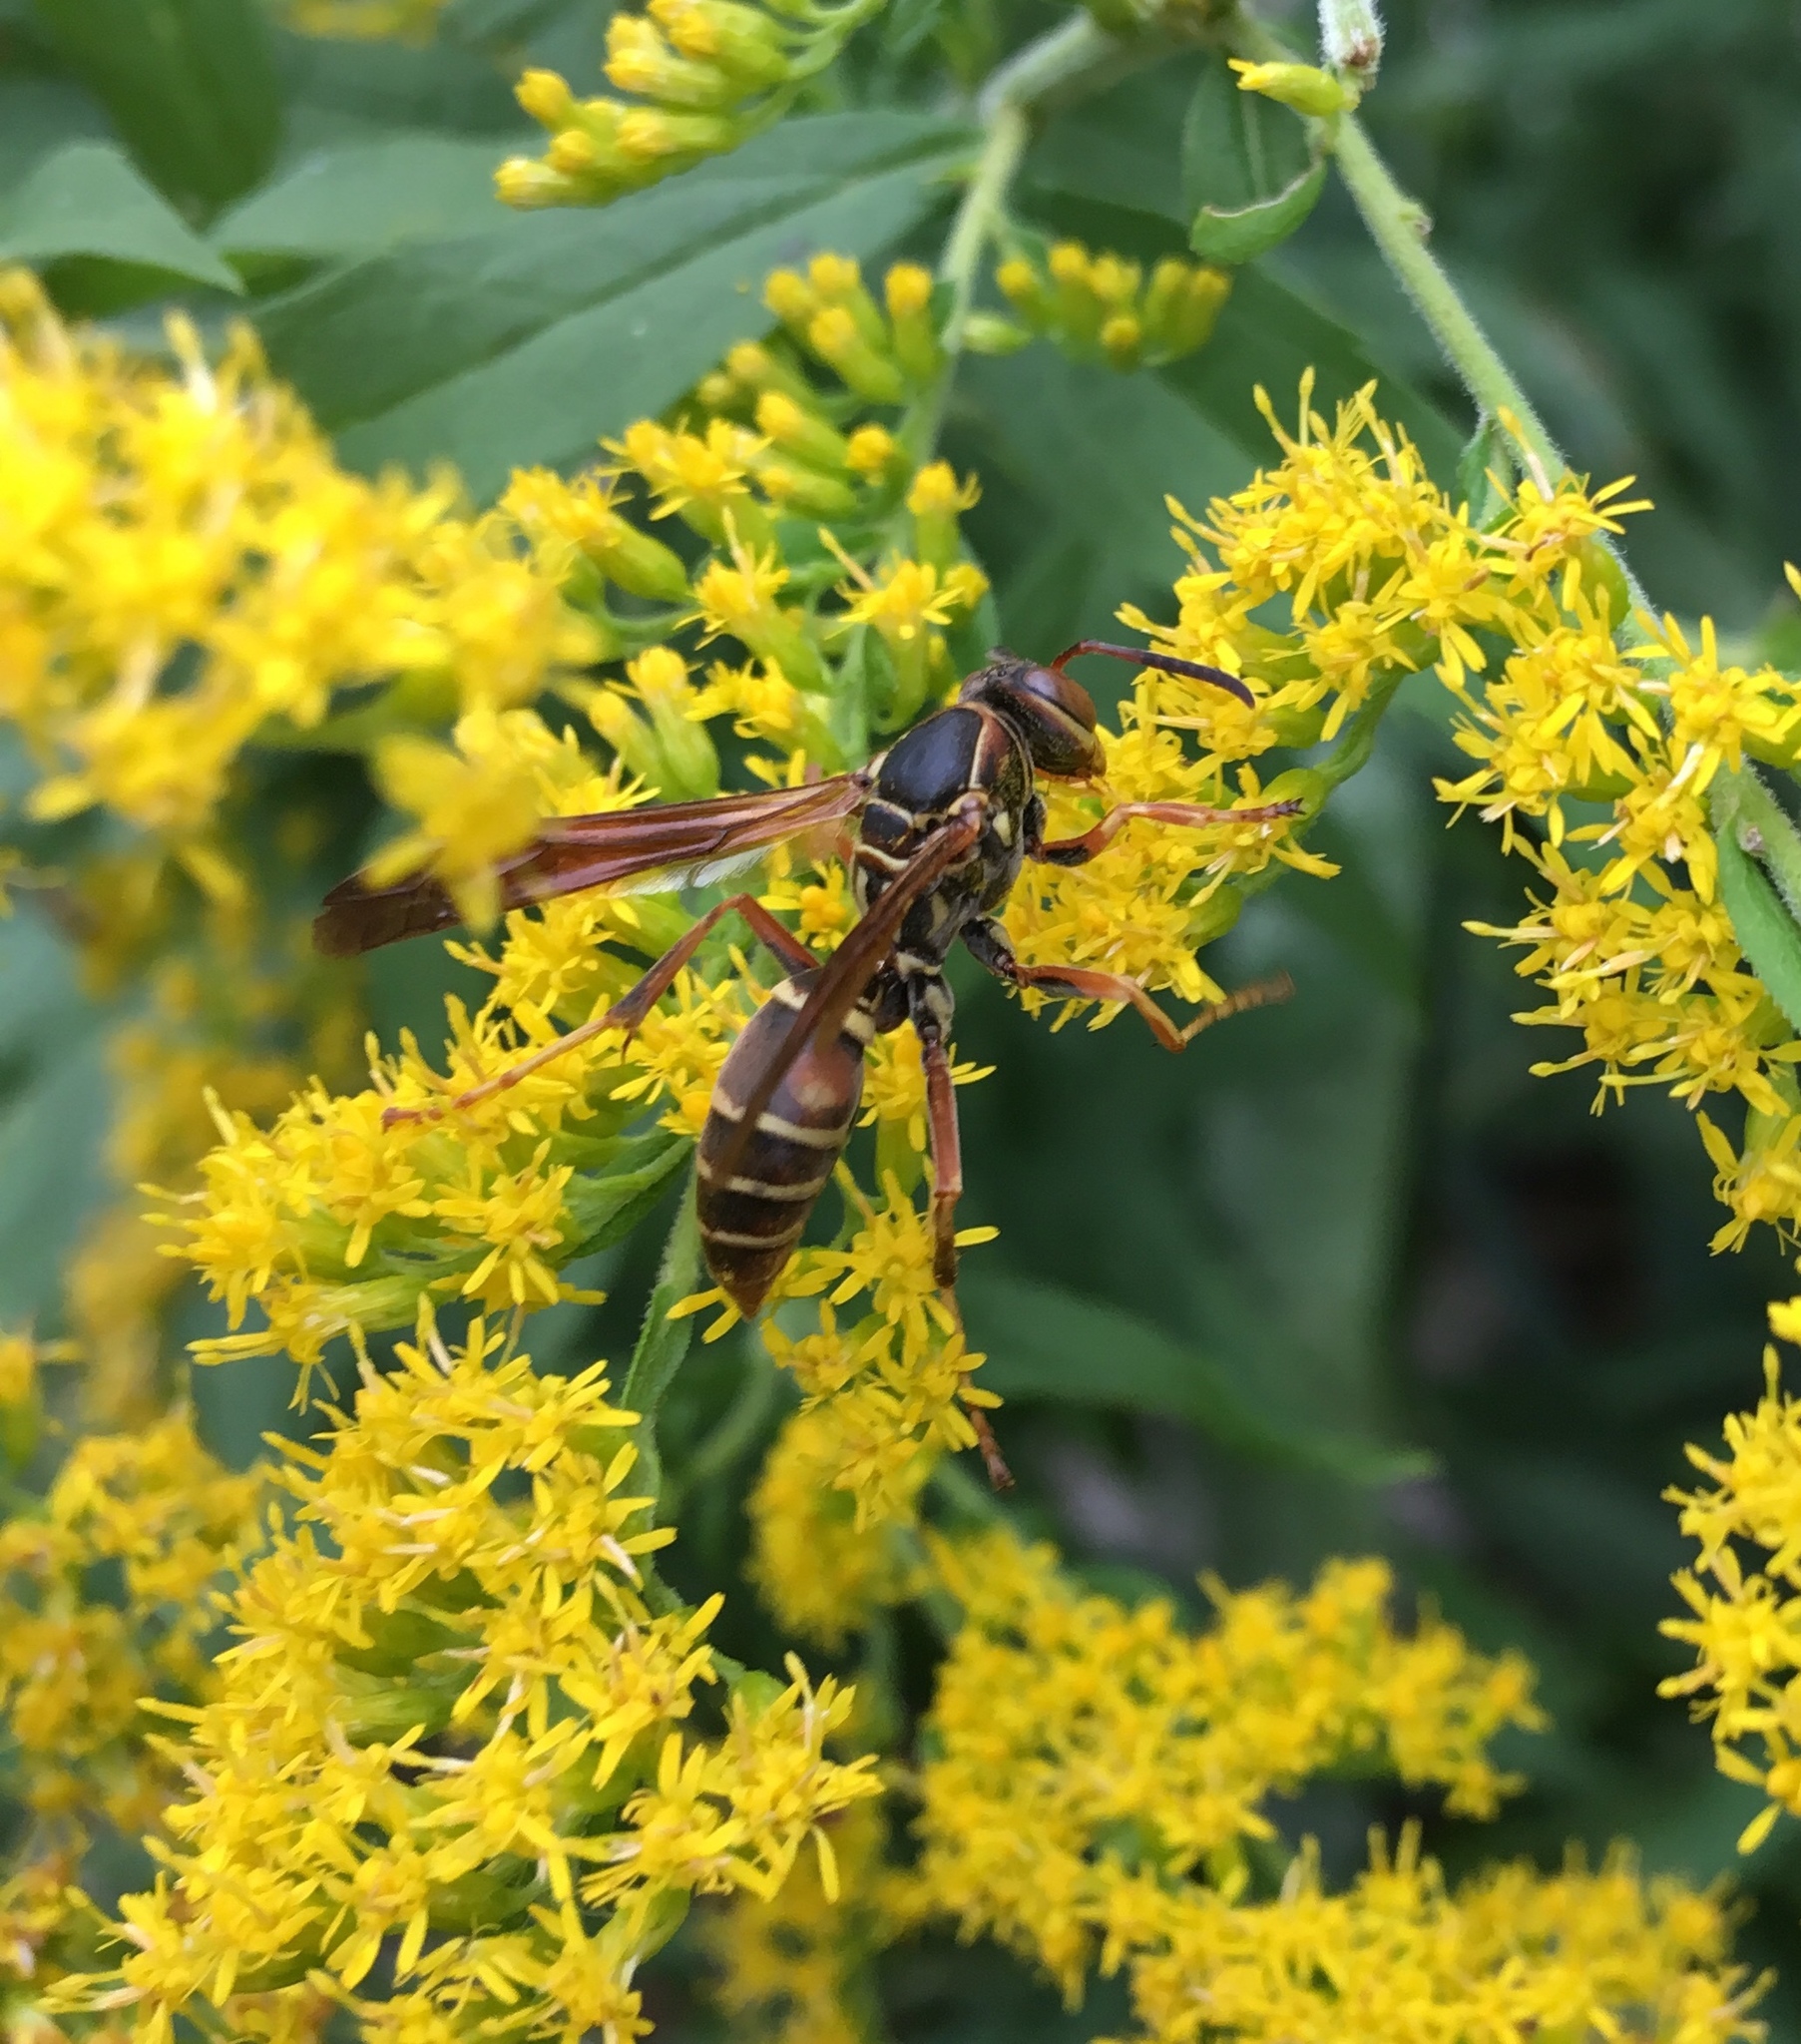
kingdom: Animalia
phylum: Arthropoda
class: Insecta
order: Hymenoptera
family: Eumenidae
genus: Polistes
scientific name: Polistes fuscatus
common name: Dark paper wasp
